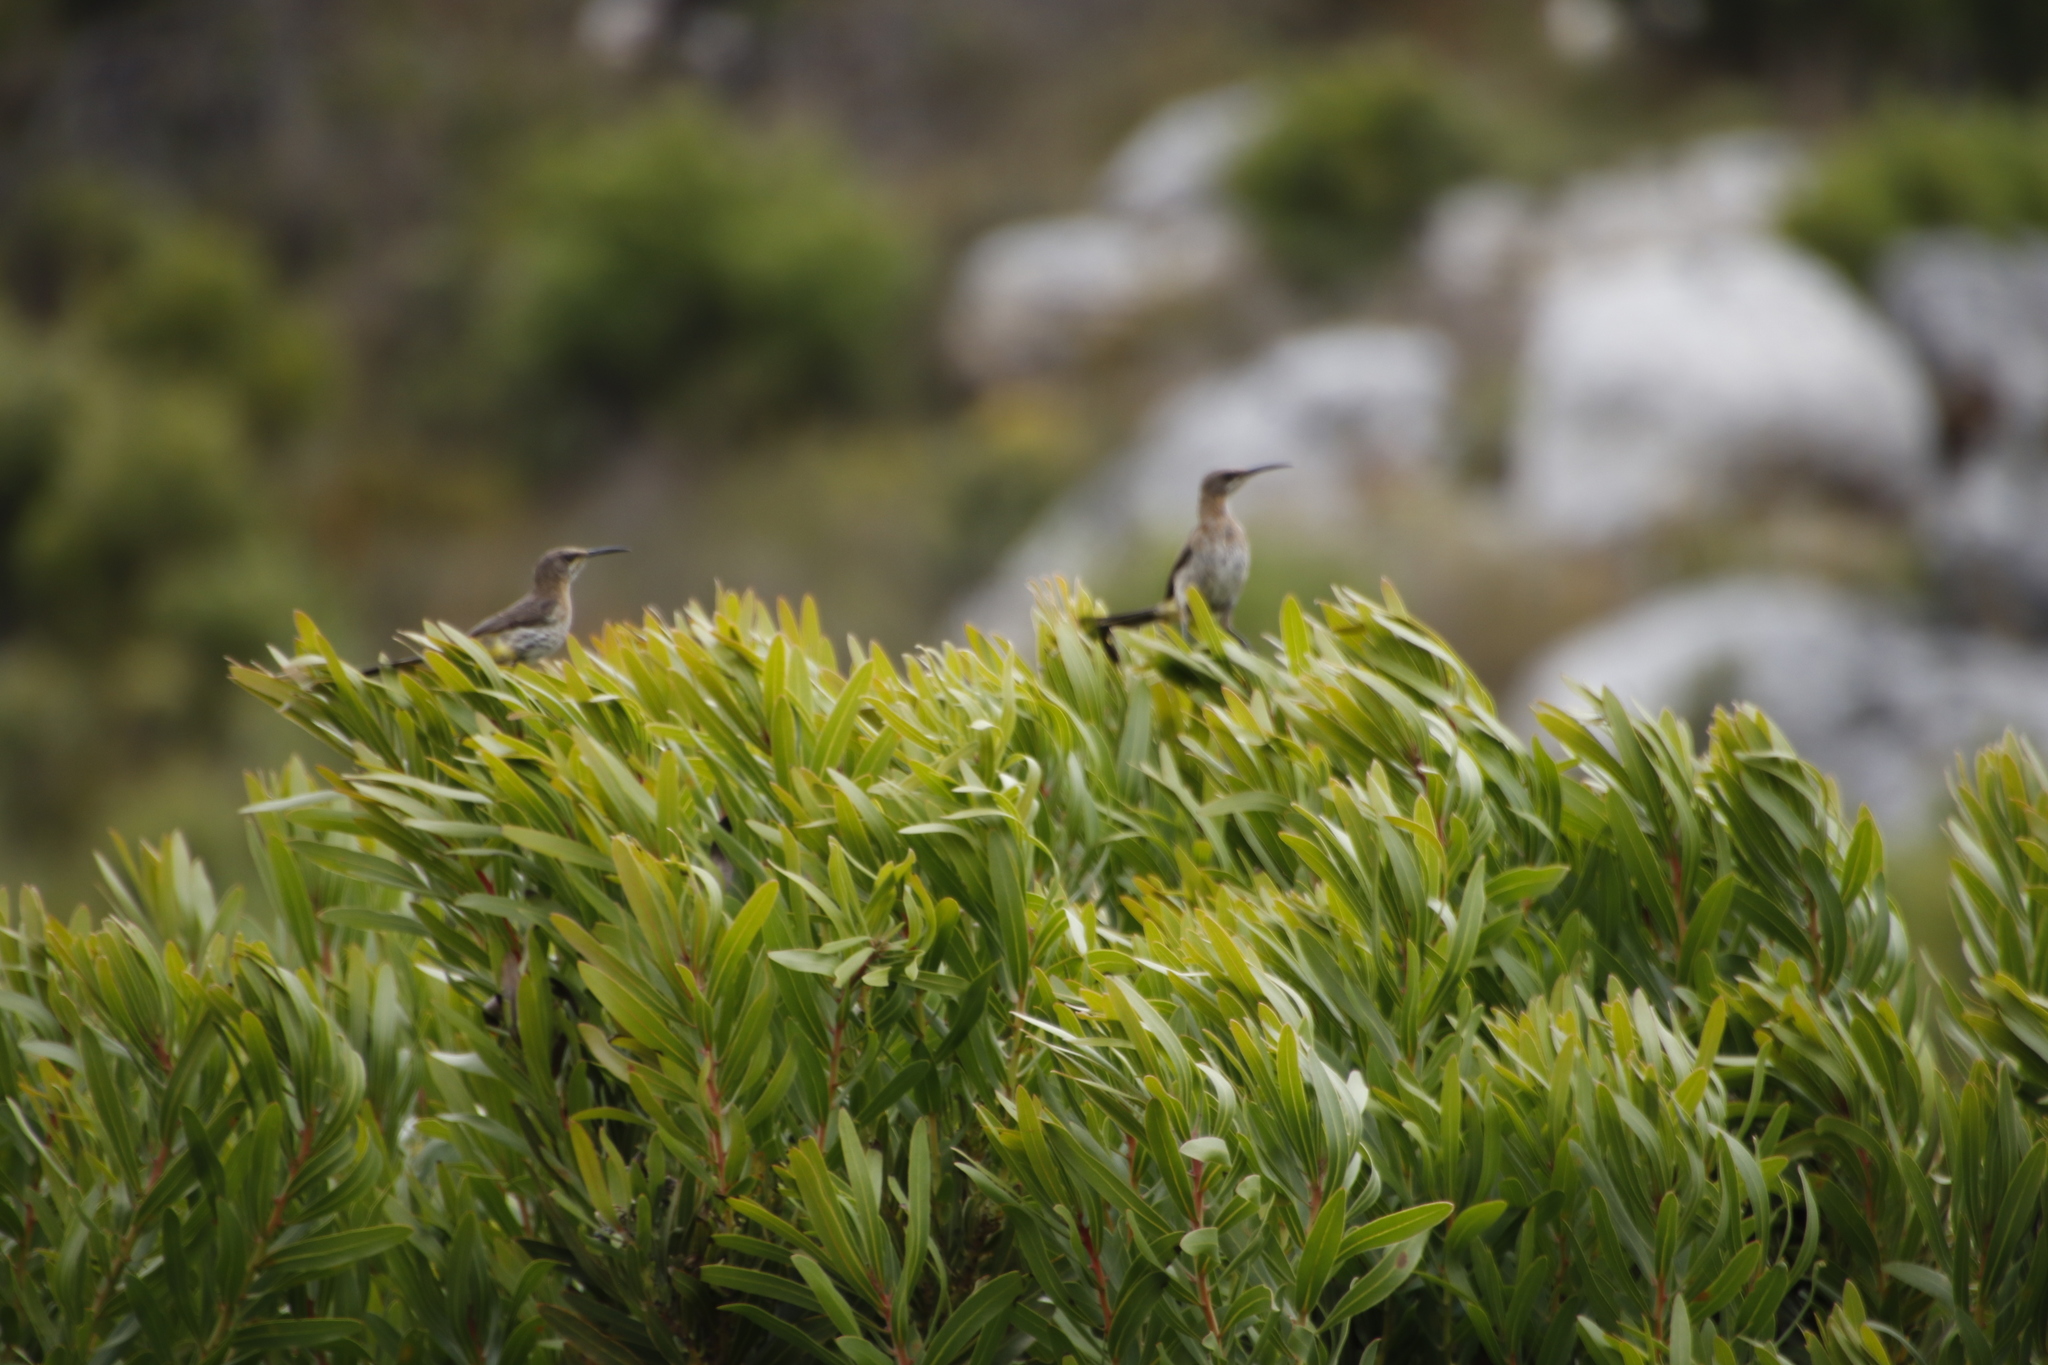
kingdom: Animalia
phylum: Chordata
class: Aves
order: Passeriformes
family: Promeropidae
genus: Promerops
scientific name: Promerops cafer
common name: Cape sugarbird
